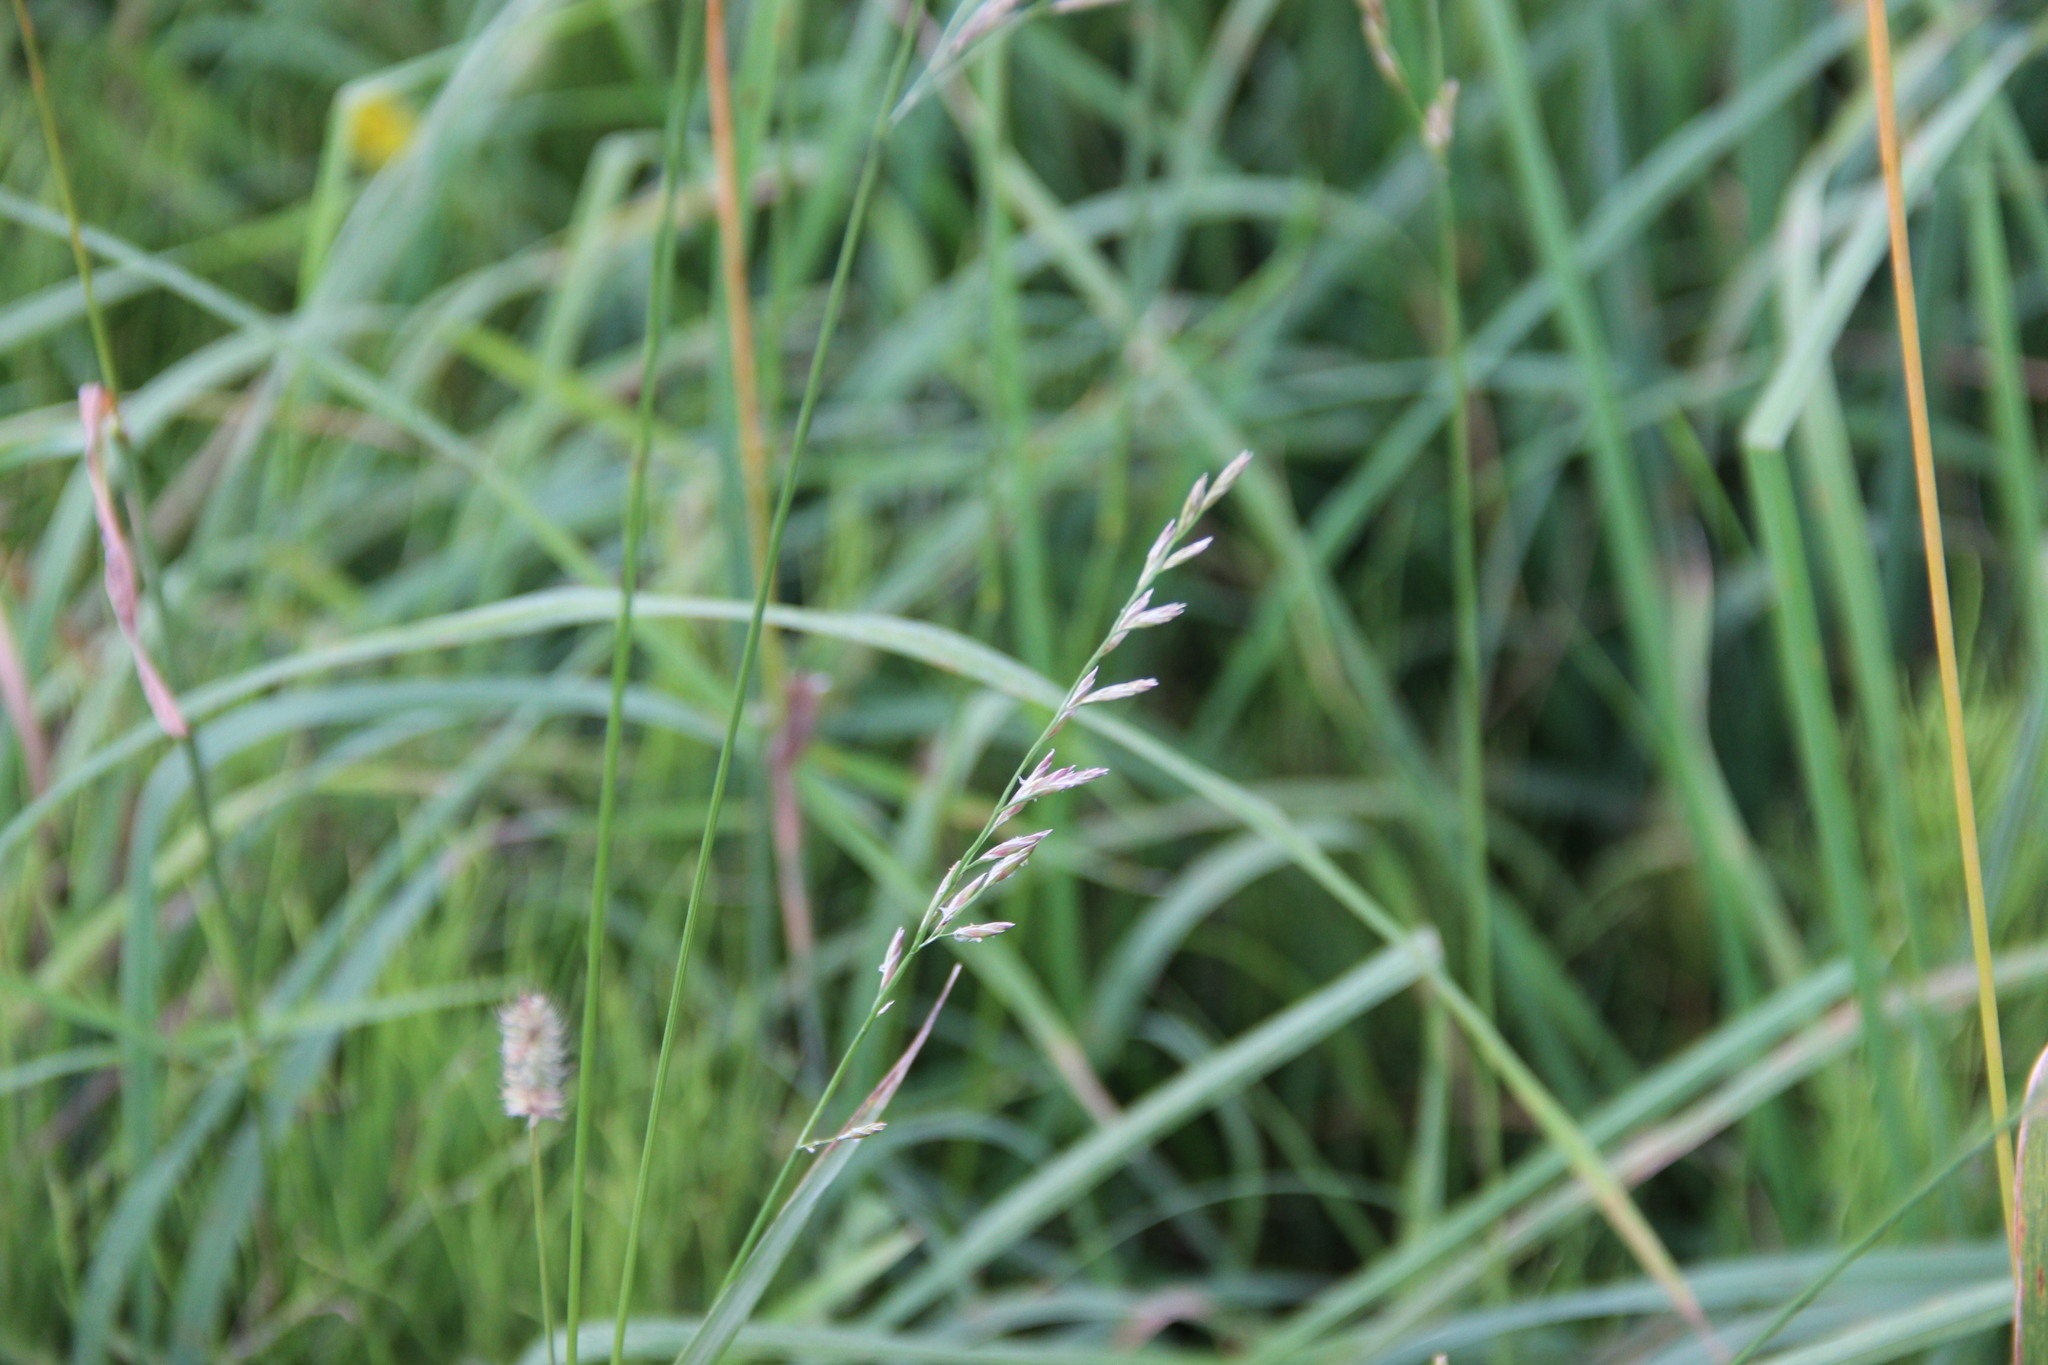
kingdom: Plantae
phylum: Tracheophyta
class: Liliopsida
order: Poales
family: Poaceae
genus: Lolium
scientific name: Lolium pratense
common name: Dover grass
